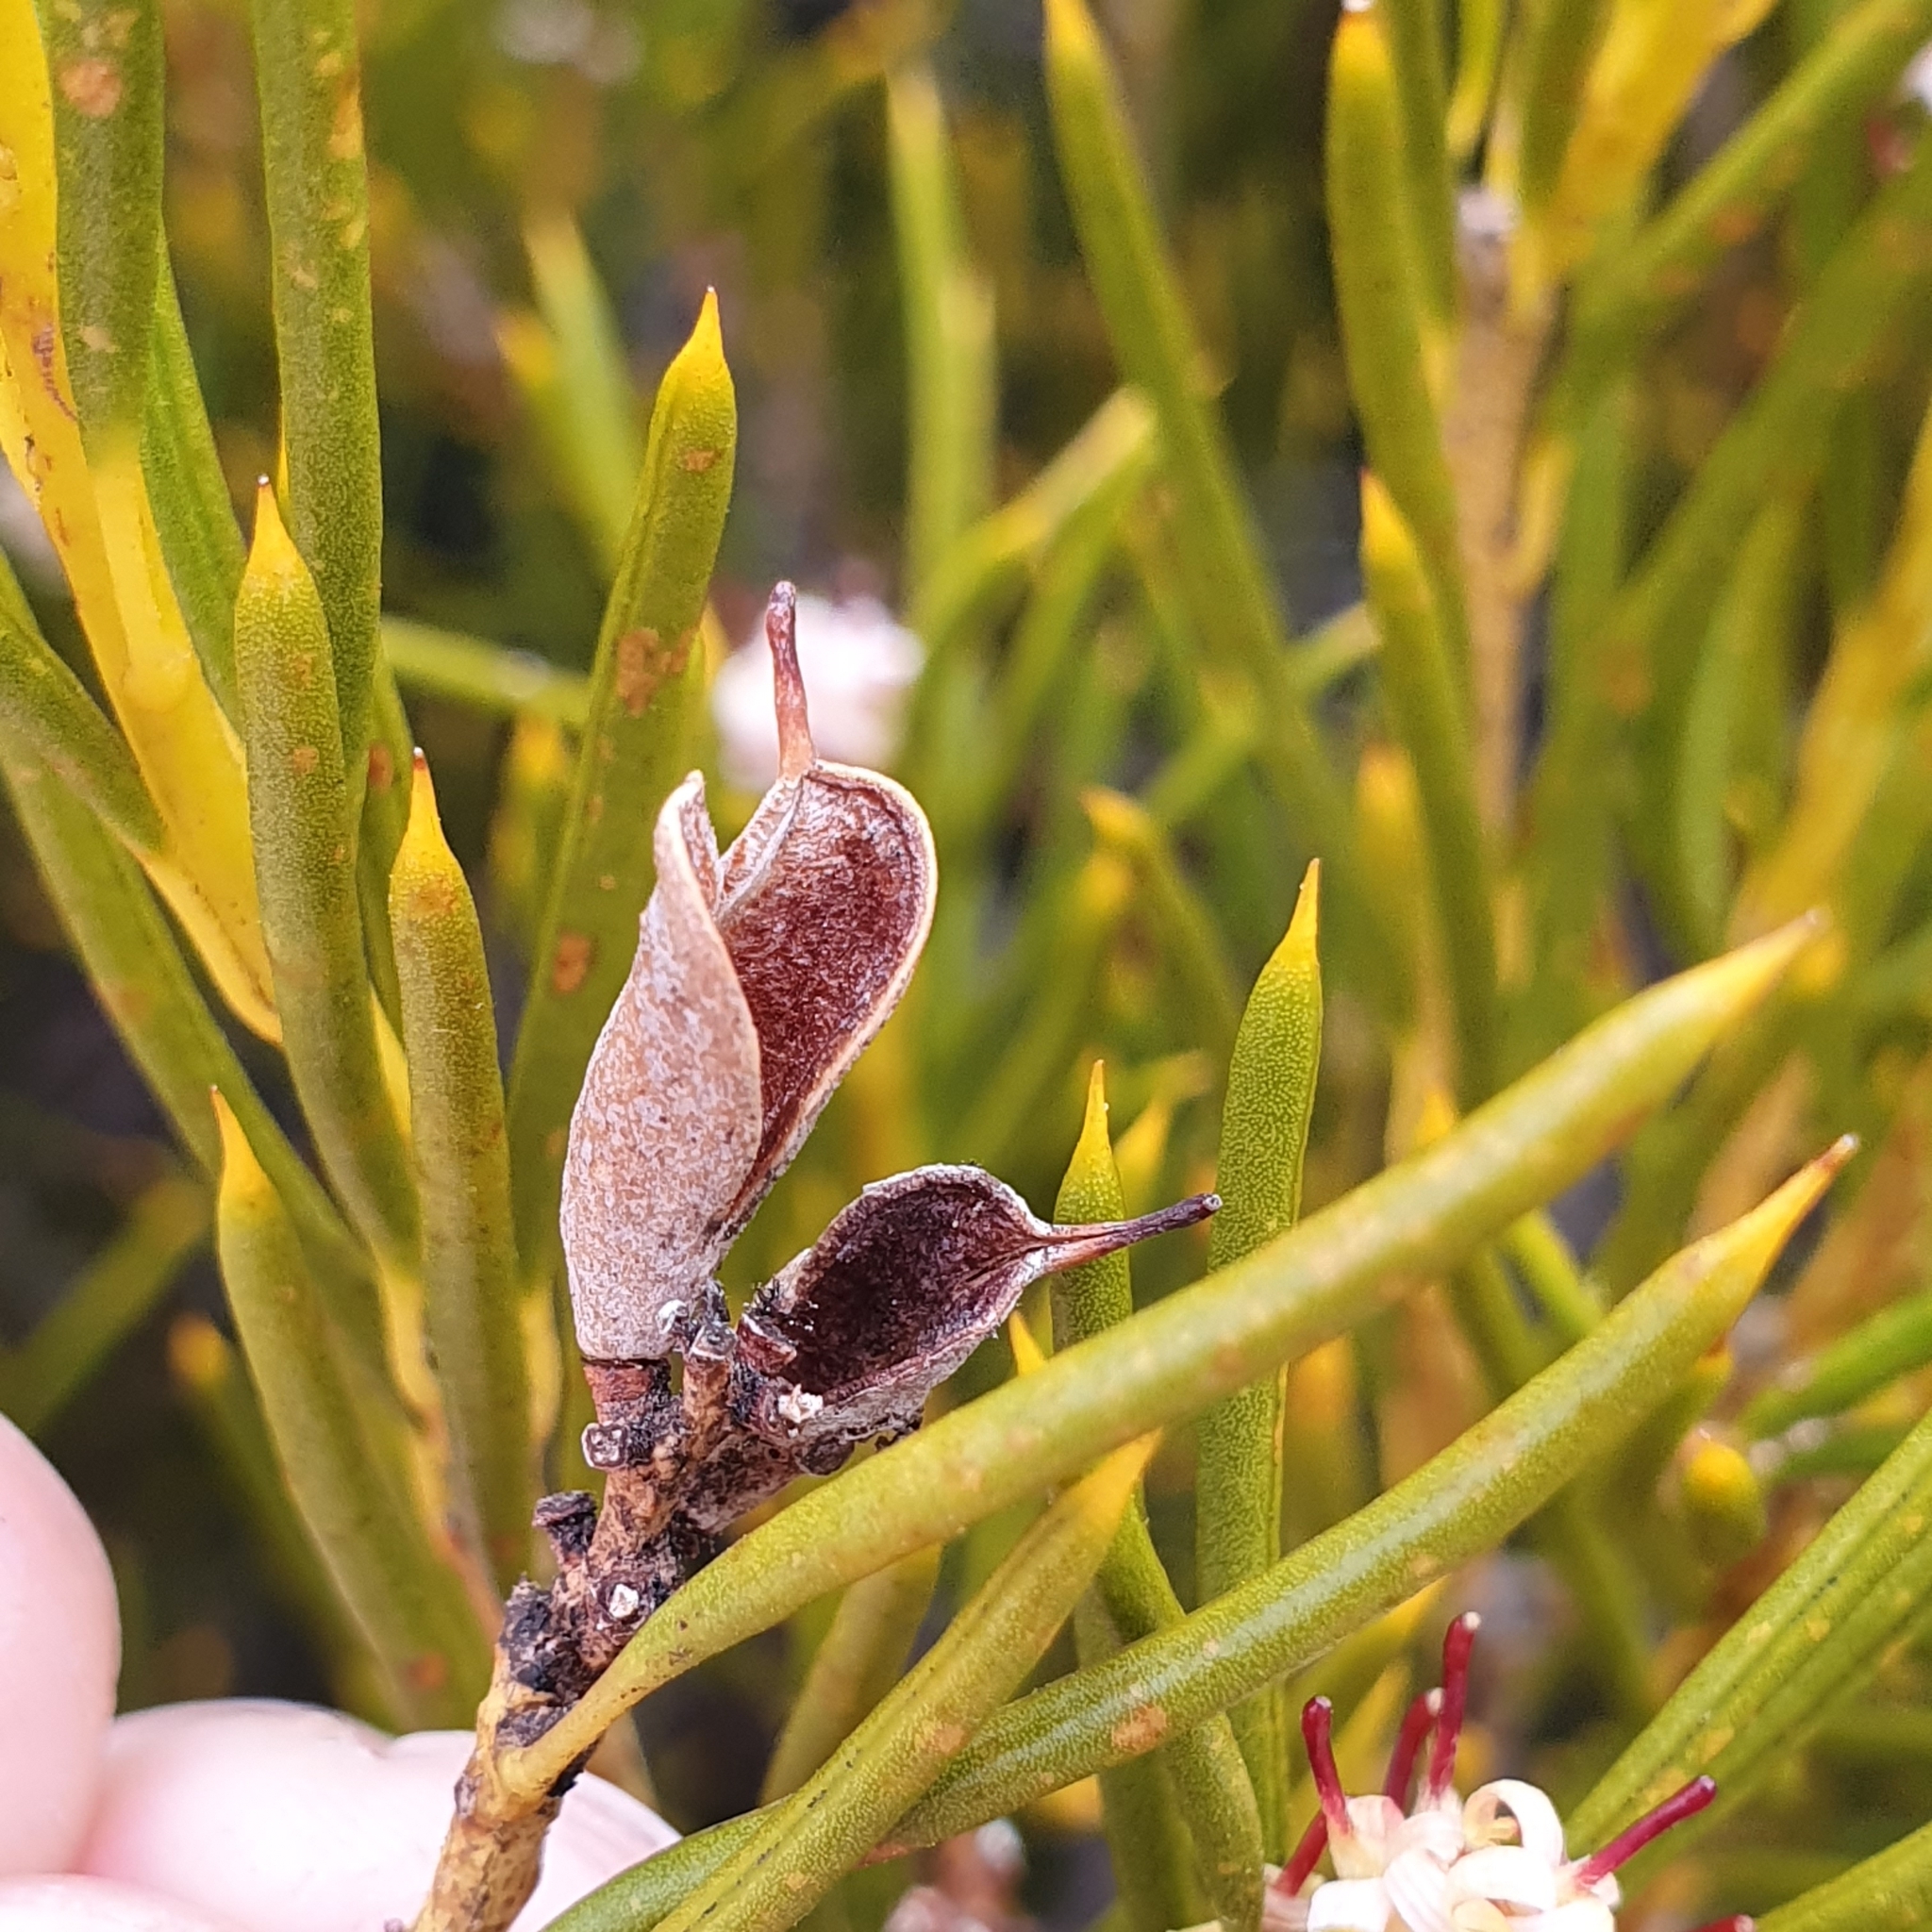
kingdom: Plantae
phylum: Tracheophyta
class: Magnoliopsida
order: Proteales
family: Proteaceae
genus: Orites
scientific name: Orites acicularis
